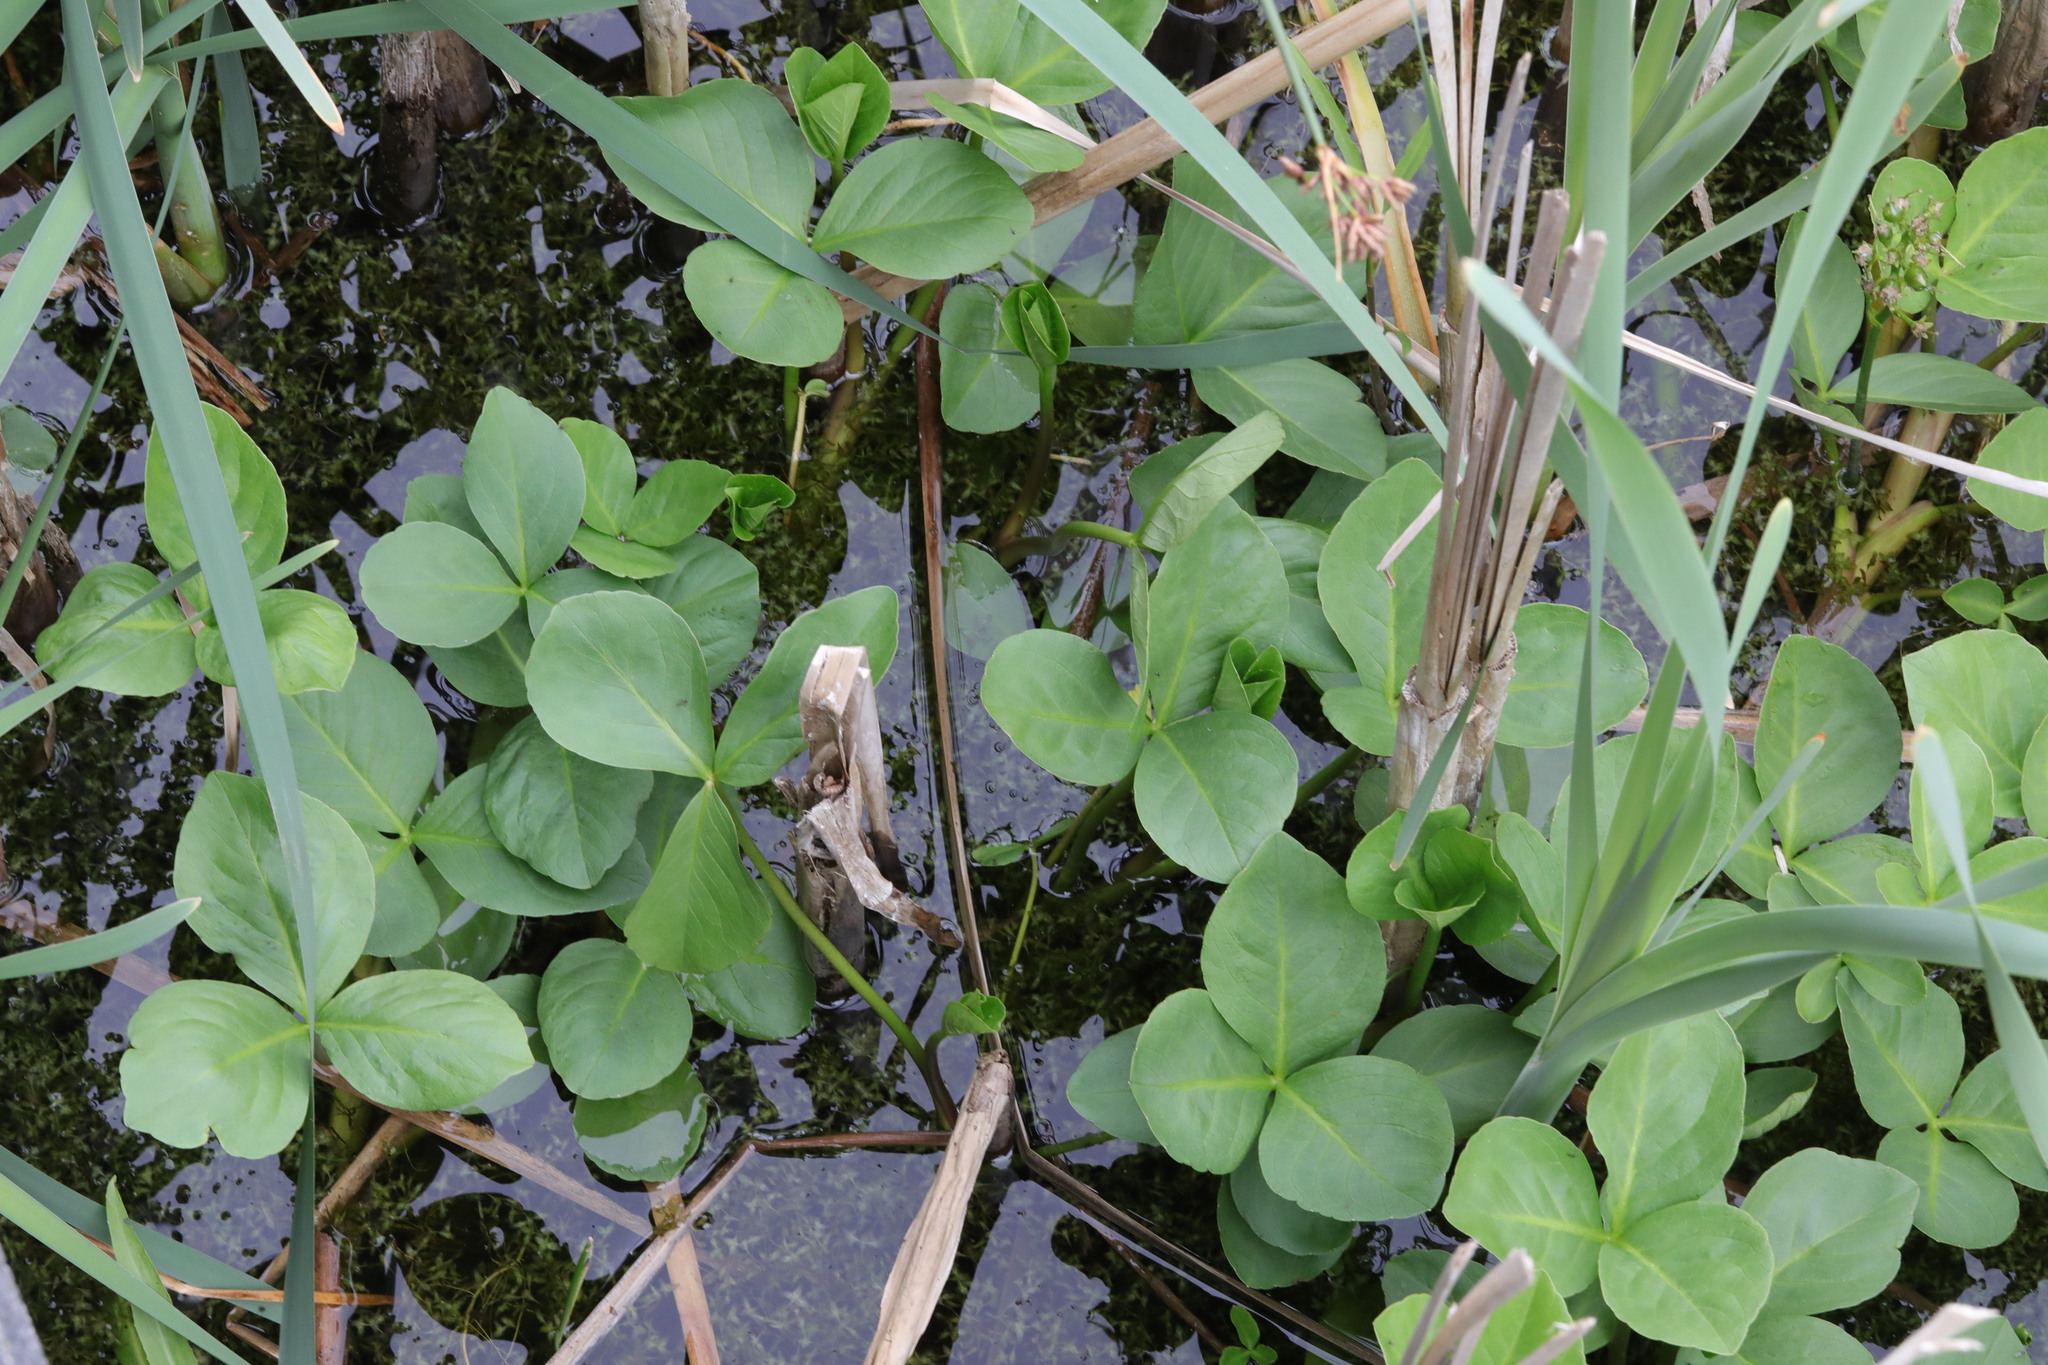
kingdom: Plantae
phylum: Tracheophyta
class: Magnoliopsida
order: Asterales
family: Menyanthaceae
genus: Menyanthes
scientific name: Menyanthes trifoliata
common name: Bogbean
